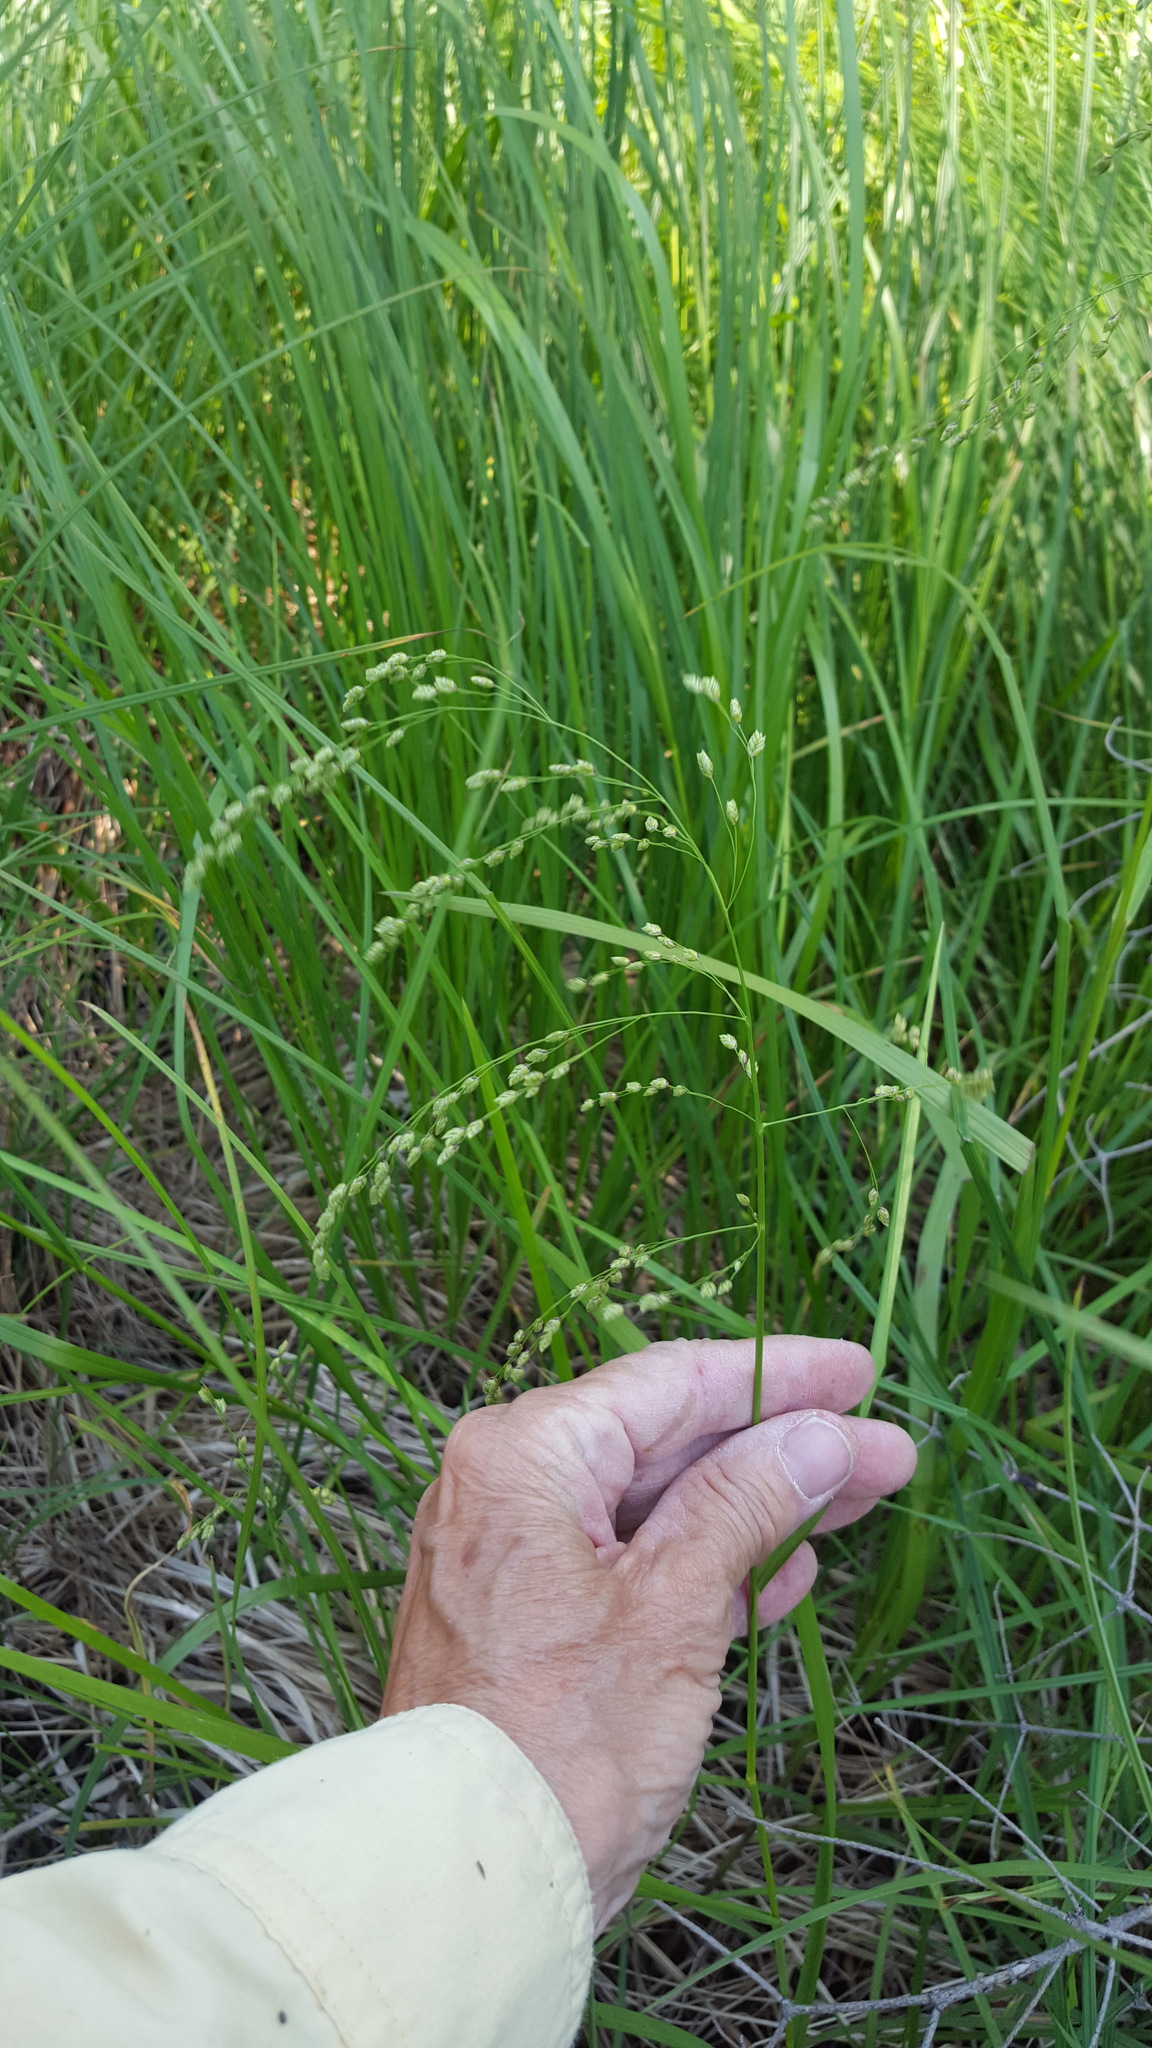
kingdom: Plantae
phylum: Tracheophyta
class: Liliopsida
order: Poales
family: Poaceae
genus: Glyceria
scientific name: Glyceria striata
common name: Fowl manna grass
